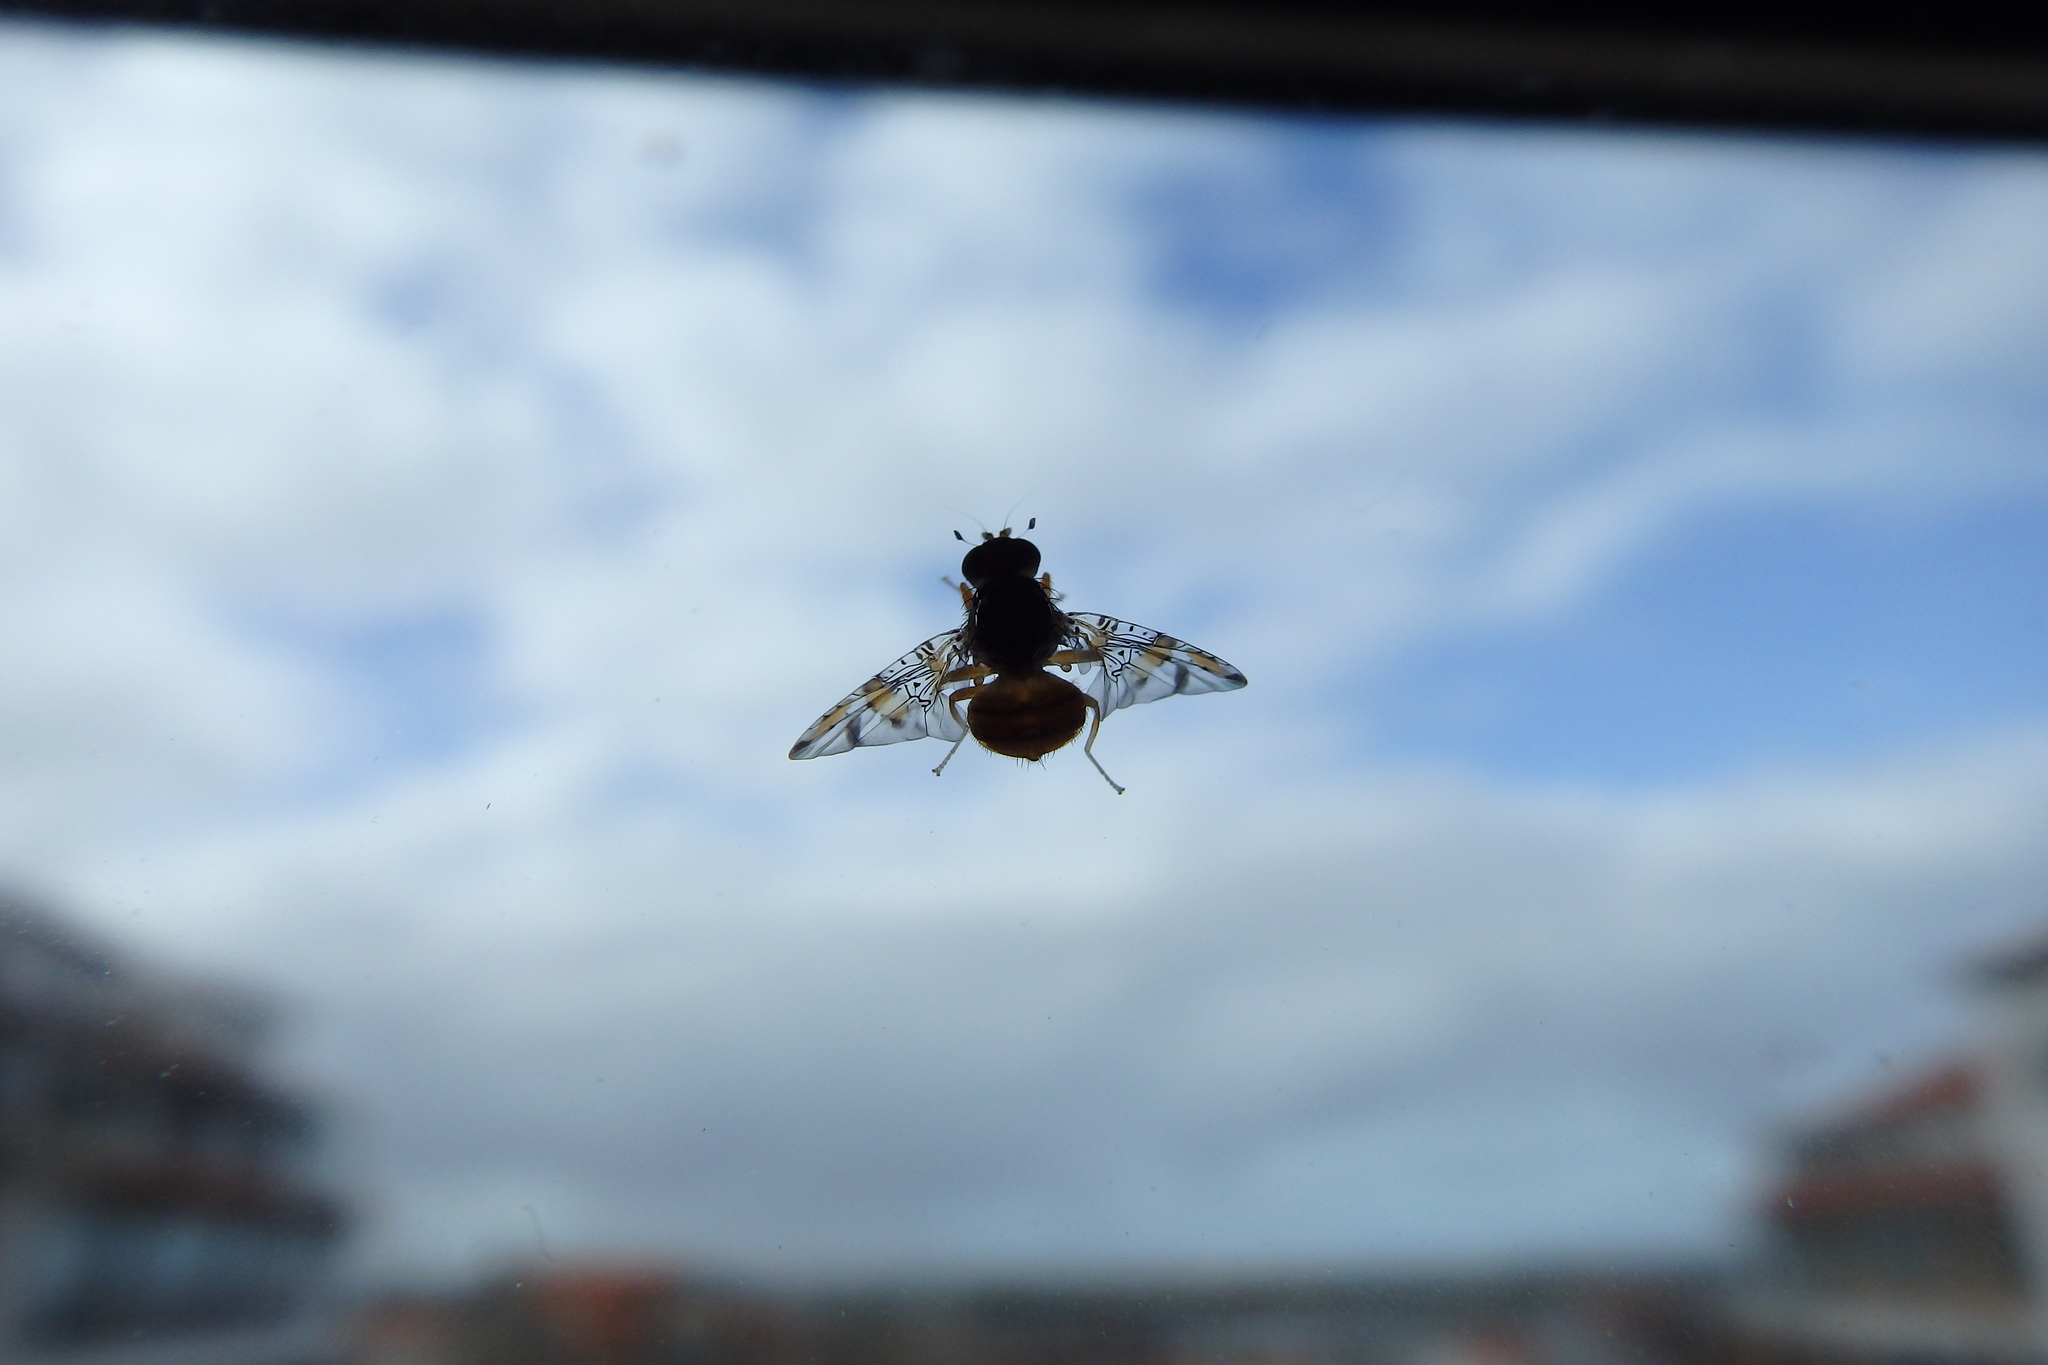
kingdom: Animalia
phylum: Arthropoda
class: Insecta
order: Diptera
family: Tephritidae
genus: Ceratitis
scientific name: Ceratitis capitata
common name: Mediterranean fruit fly
